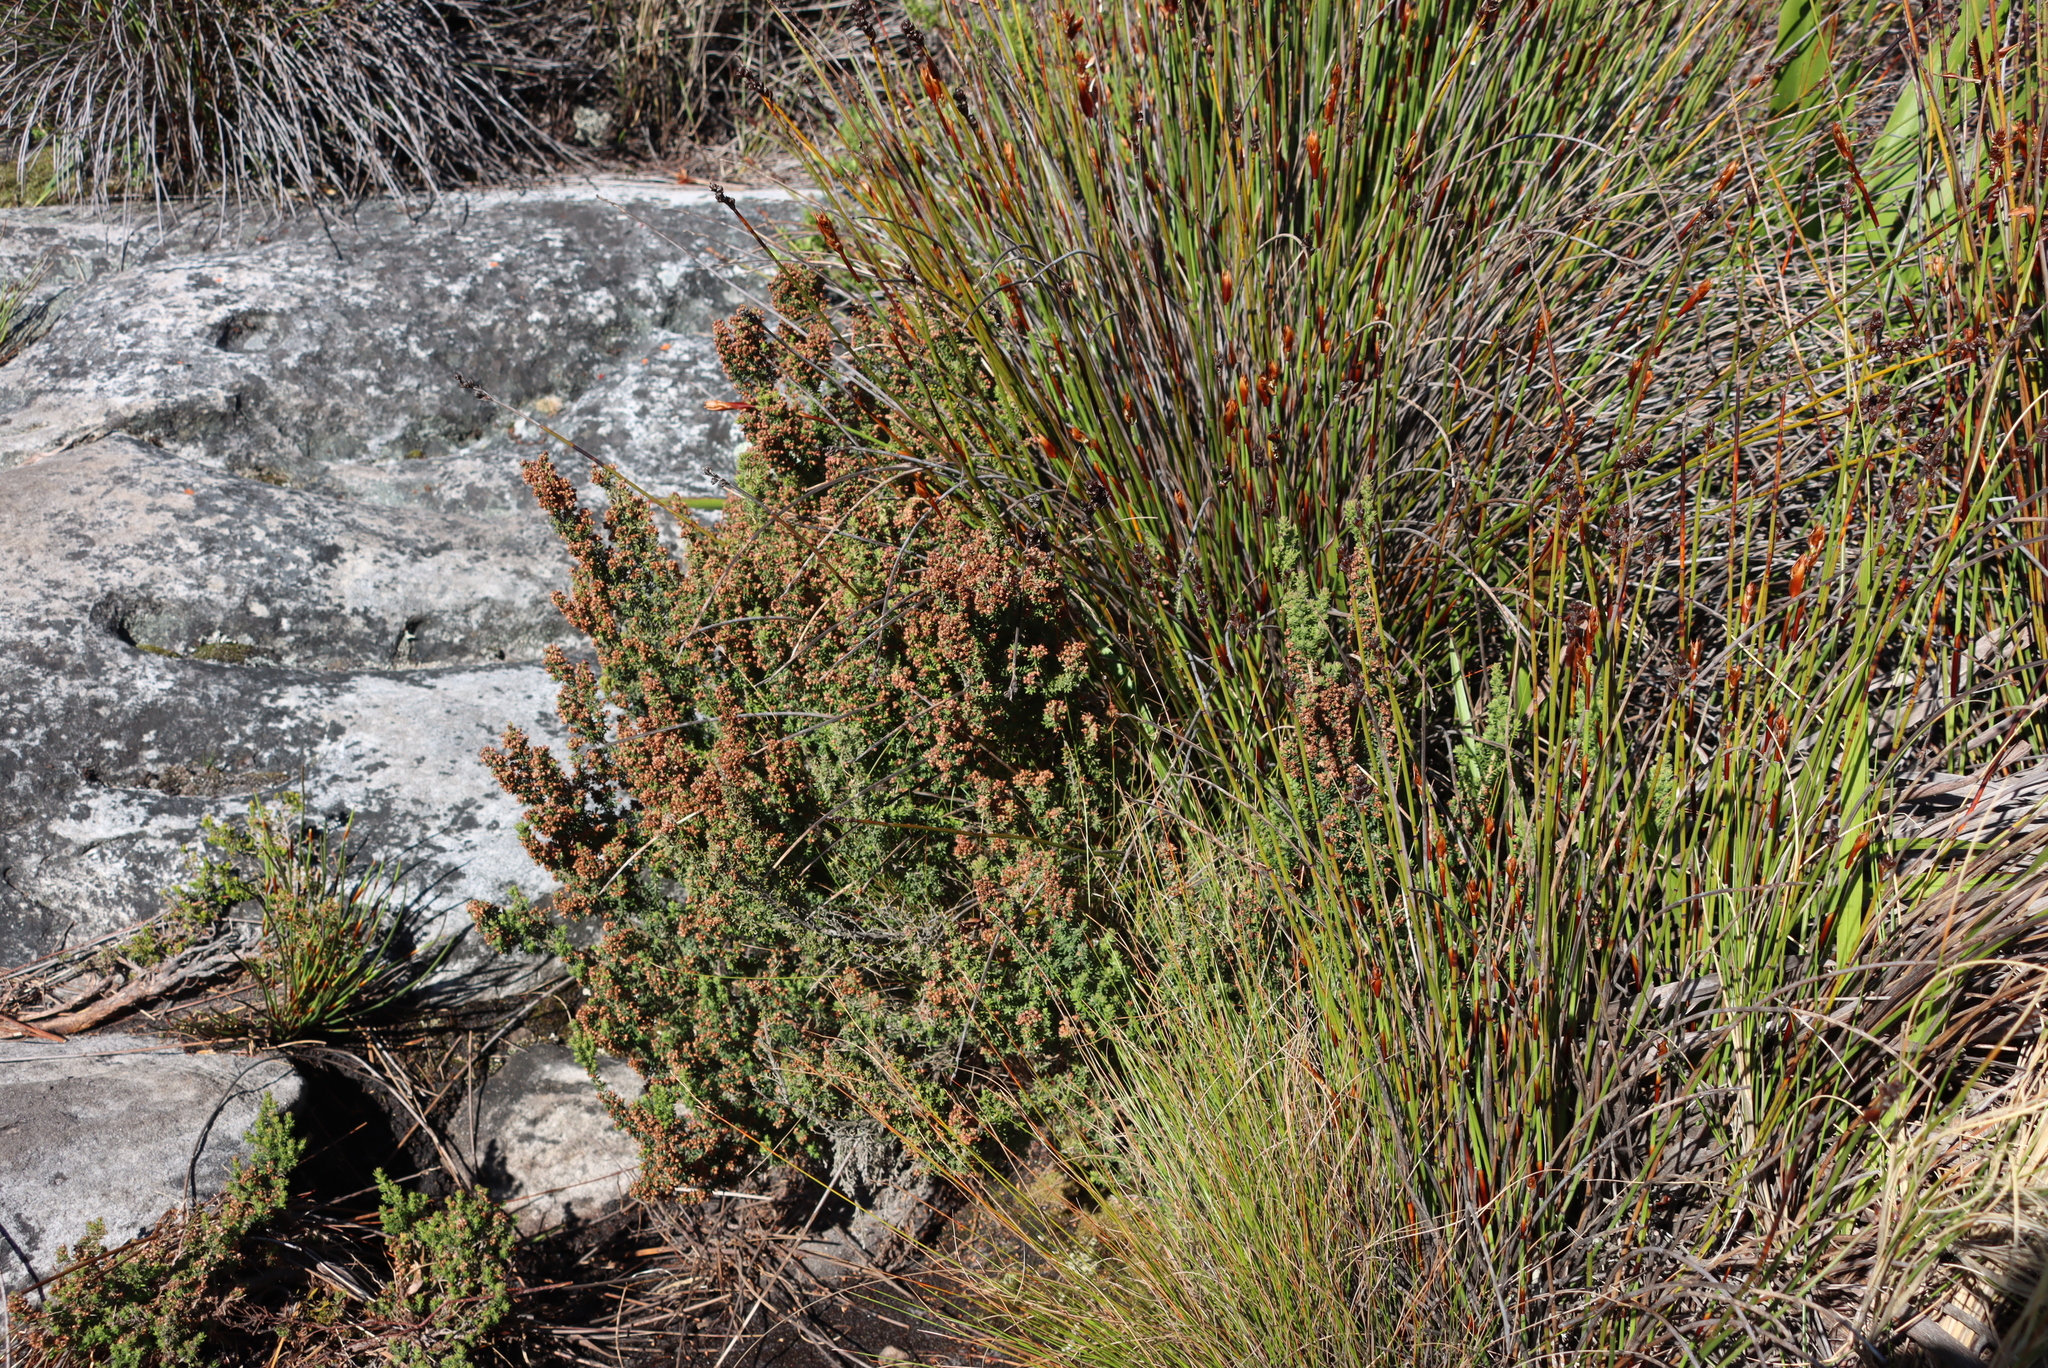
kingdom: Plantae
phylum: Tracheophyta
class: Magnoliopsida
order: Ericales
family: Ericaceae
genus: Erica
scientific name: Erica hispidula
